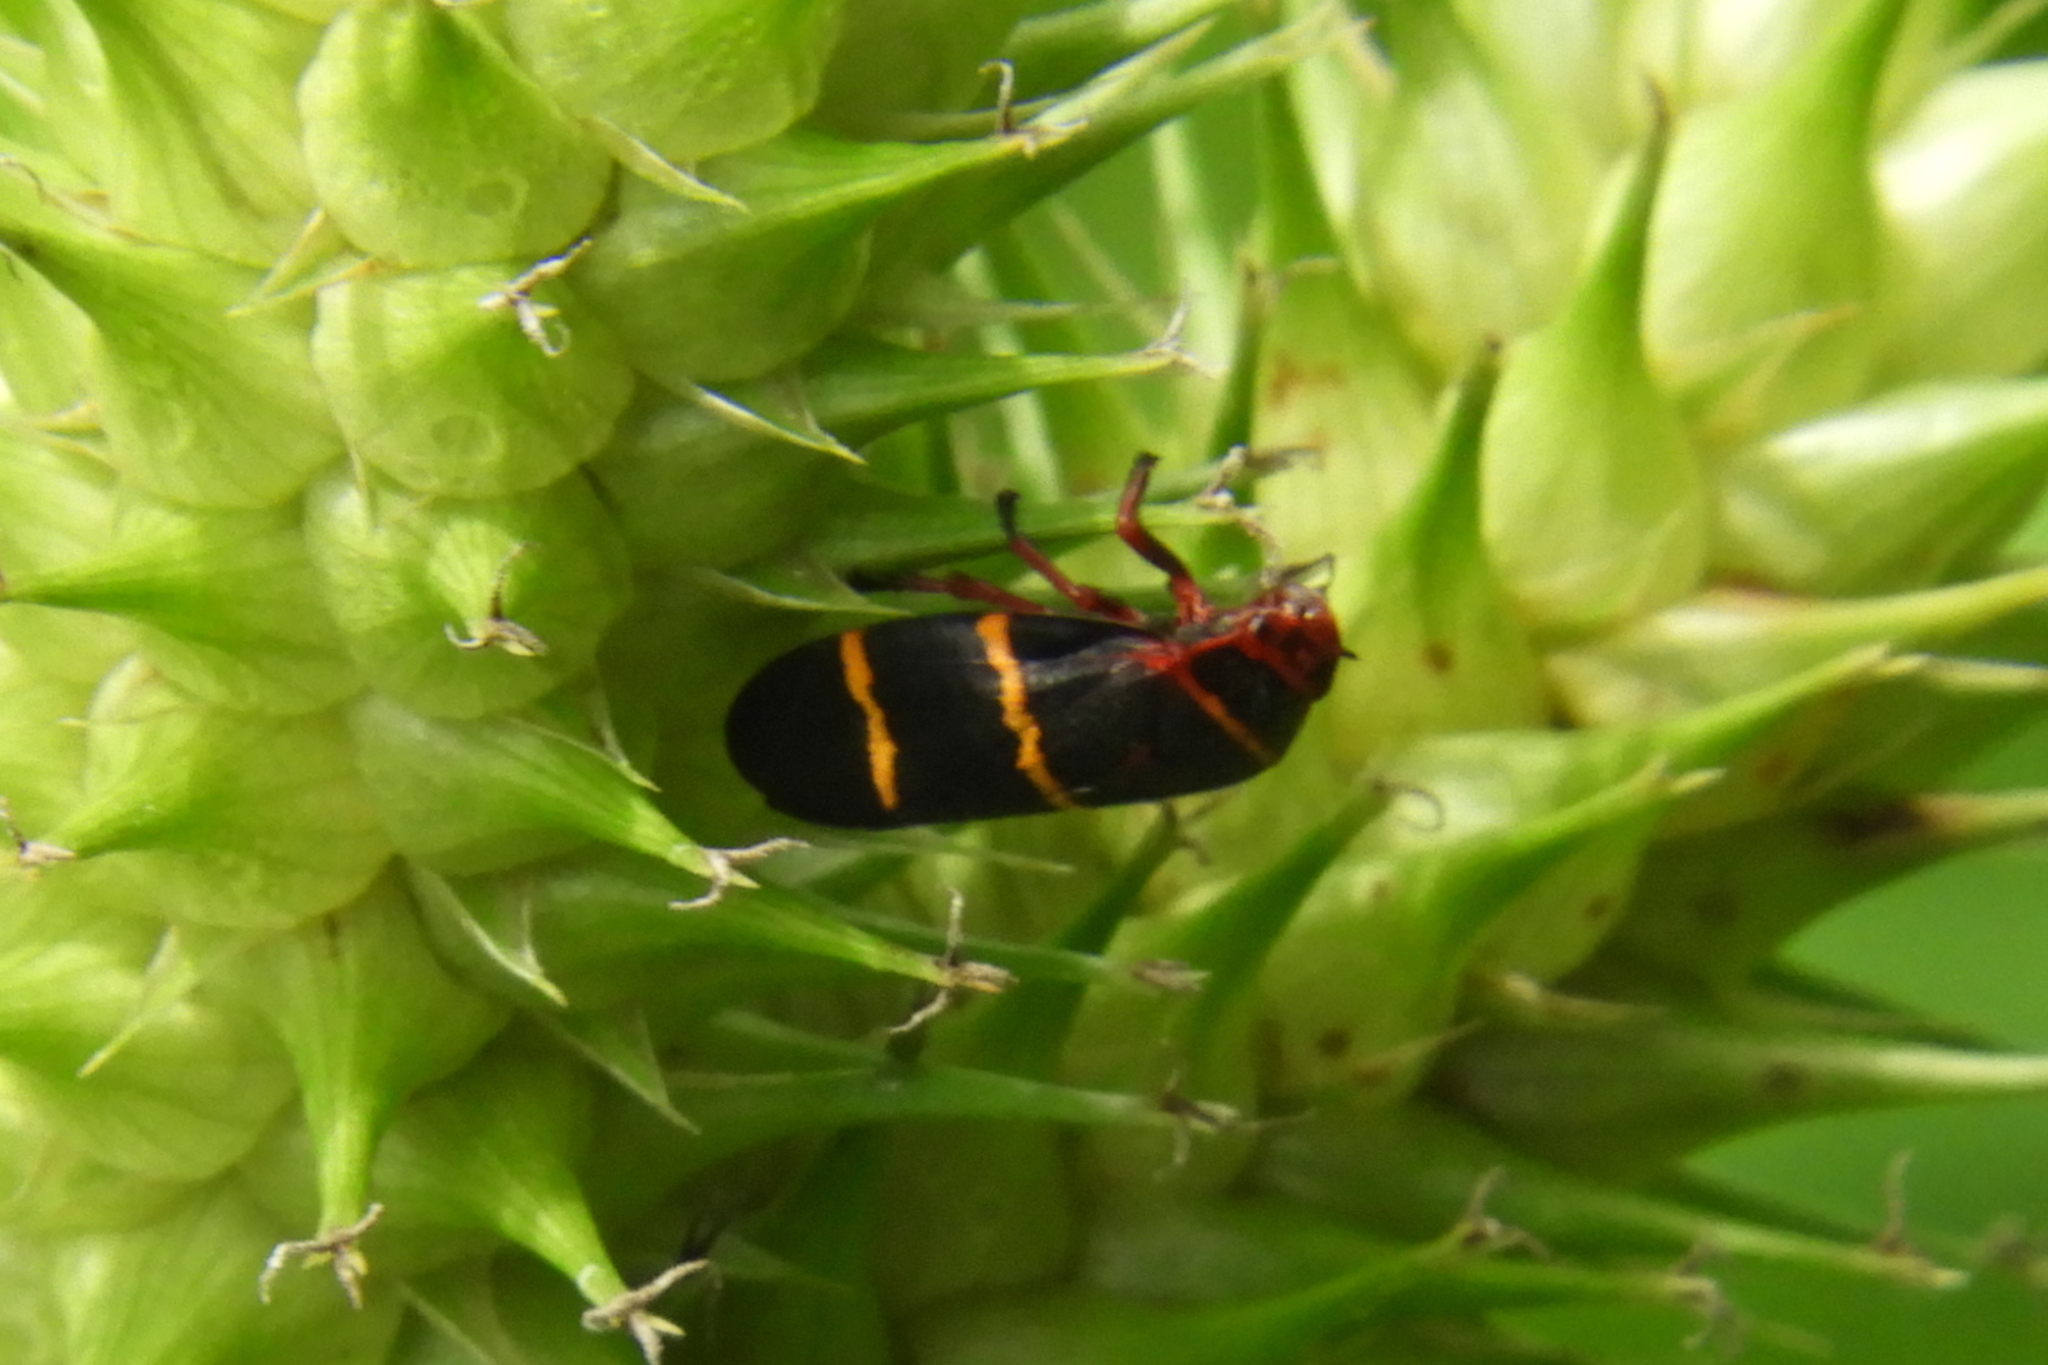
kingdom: Animalia
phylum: Arthropoda
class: Insecta
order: Hemiptera
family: Cercopidae
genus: Prosapia
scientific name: Prosapia bicincta
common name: Twolined spittlebug
